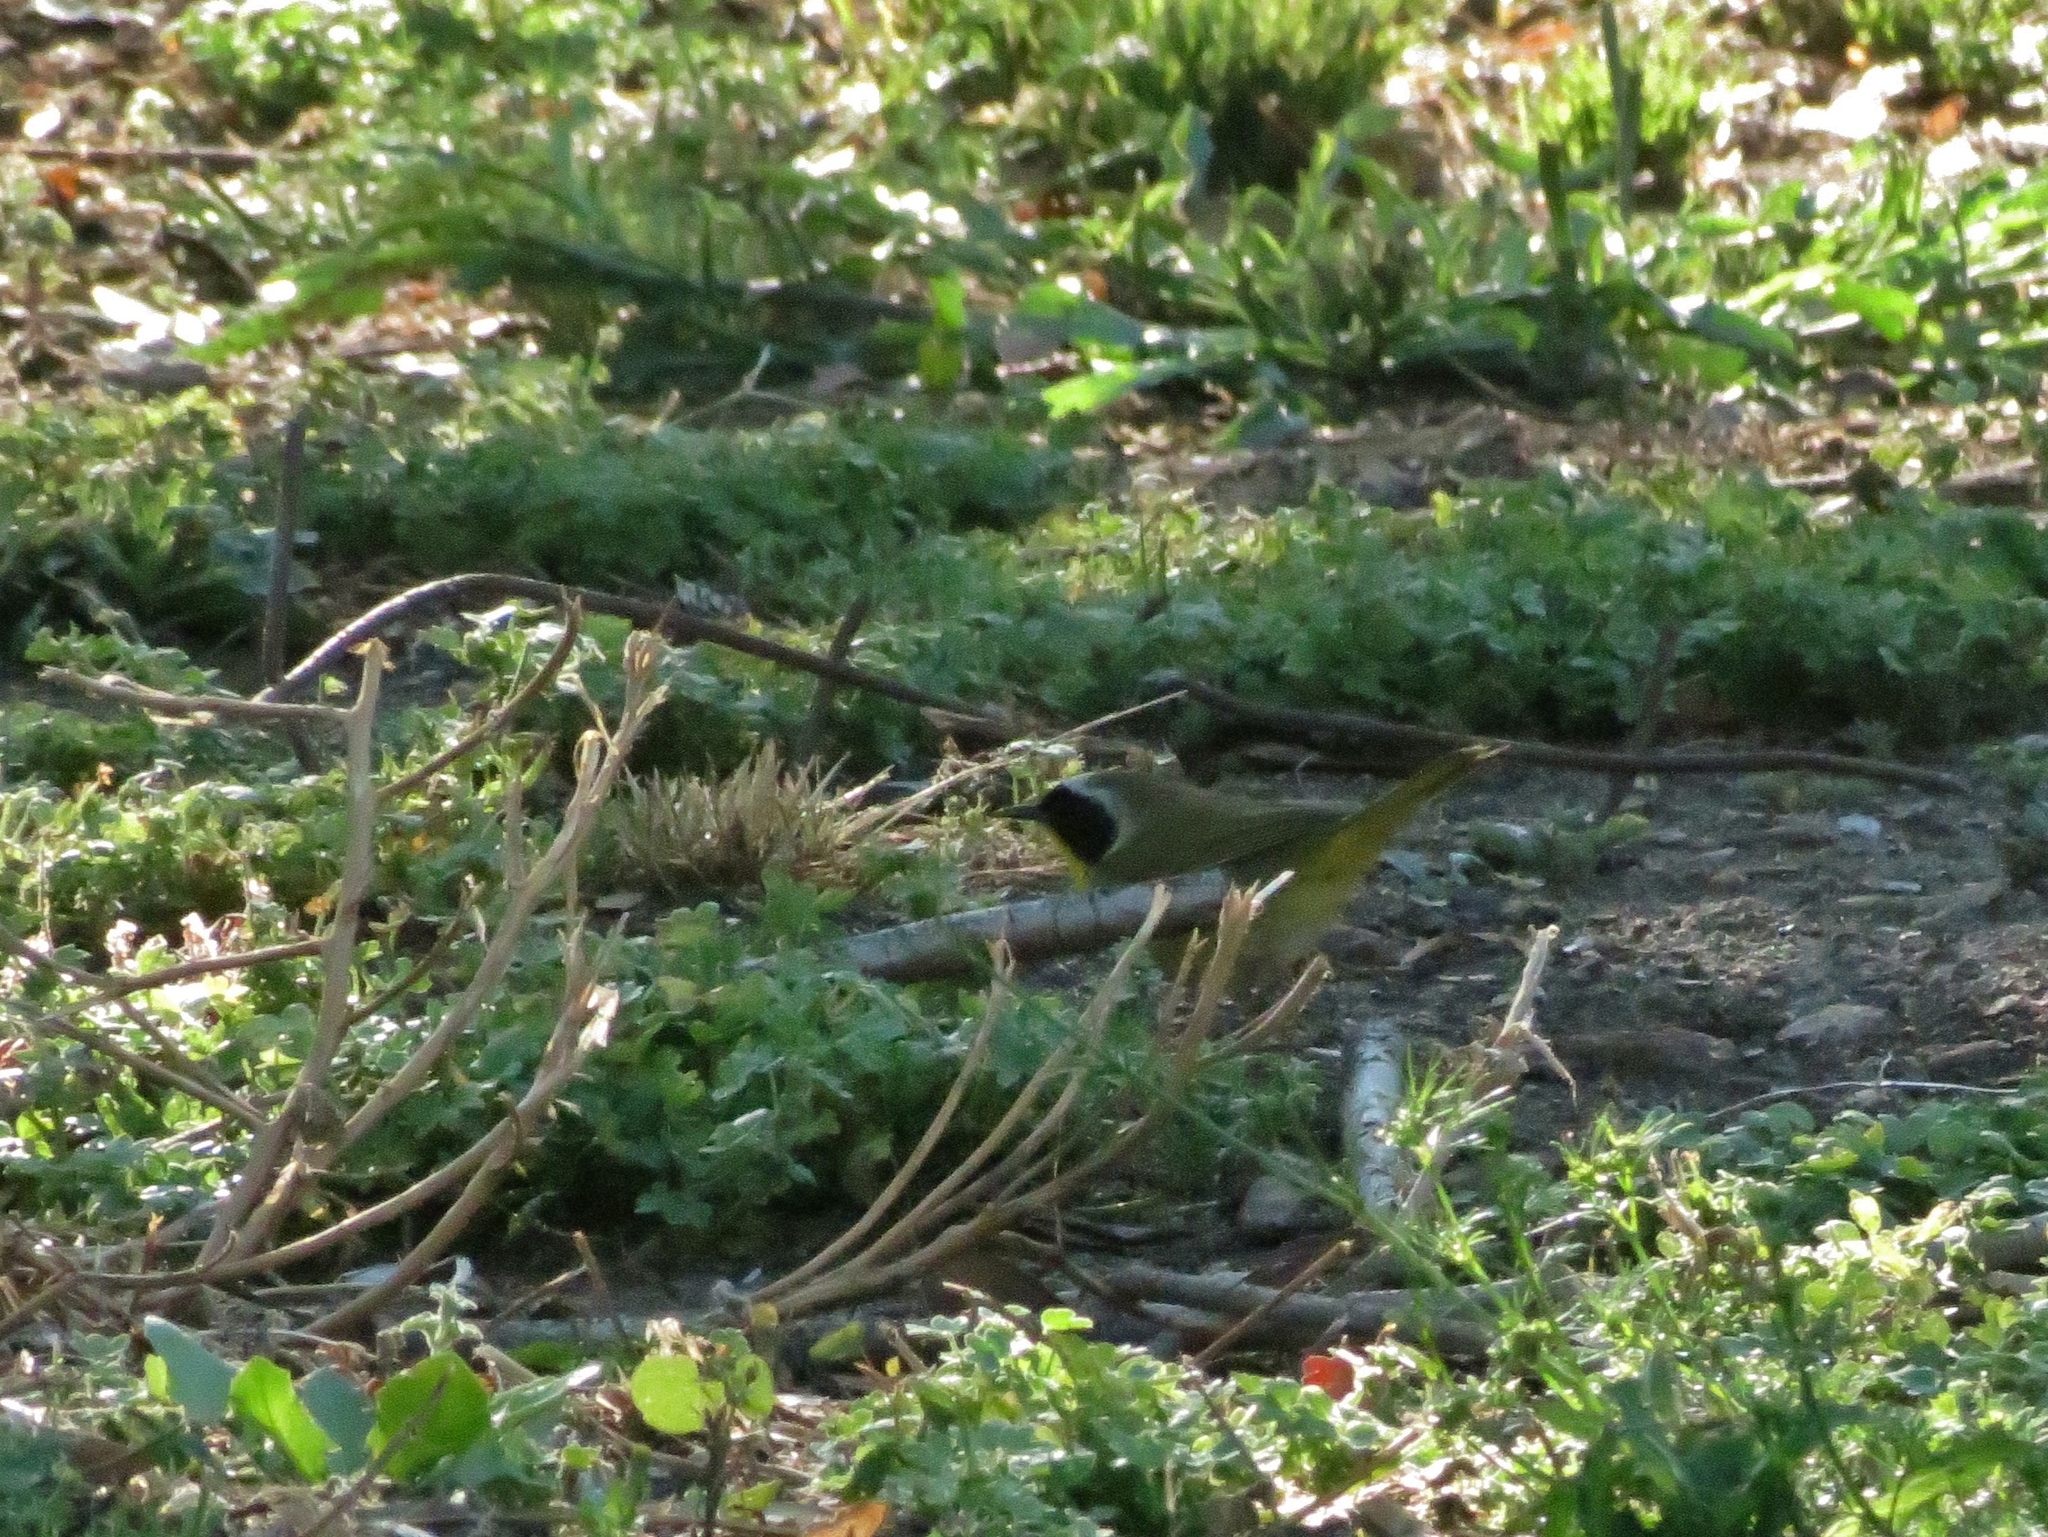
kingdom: Animalia
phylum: Chordata
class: Aves
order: Passeriformes
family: Parulidae
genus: Geothlypis
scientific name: Geothlypis trichas
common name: Common yellowthroat
